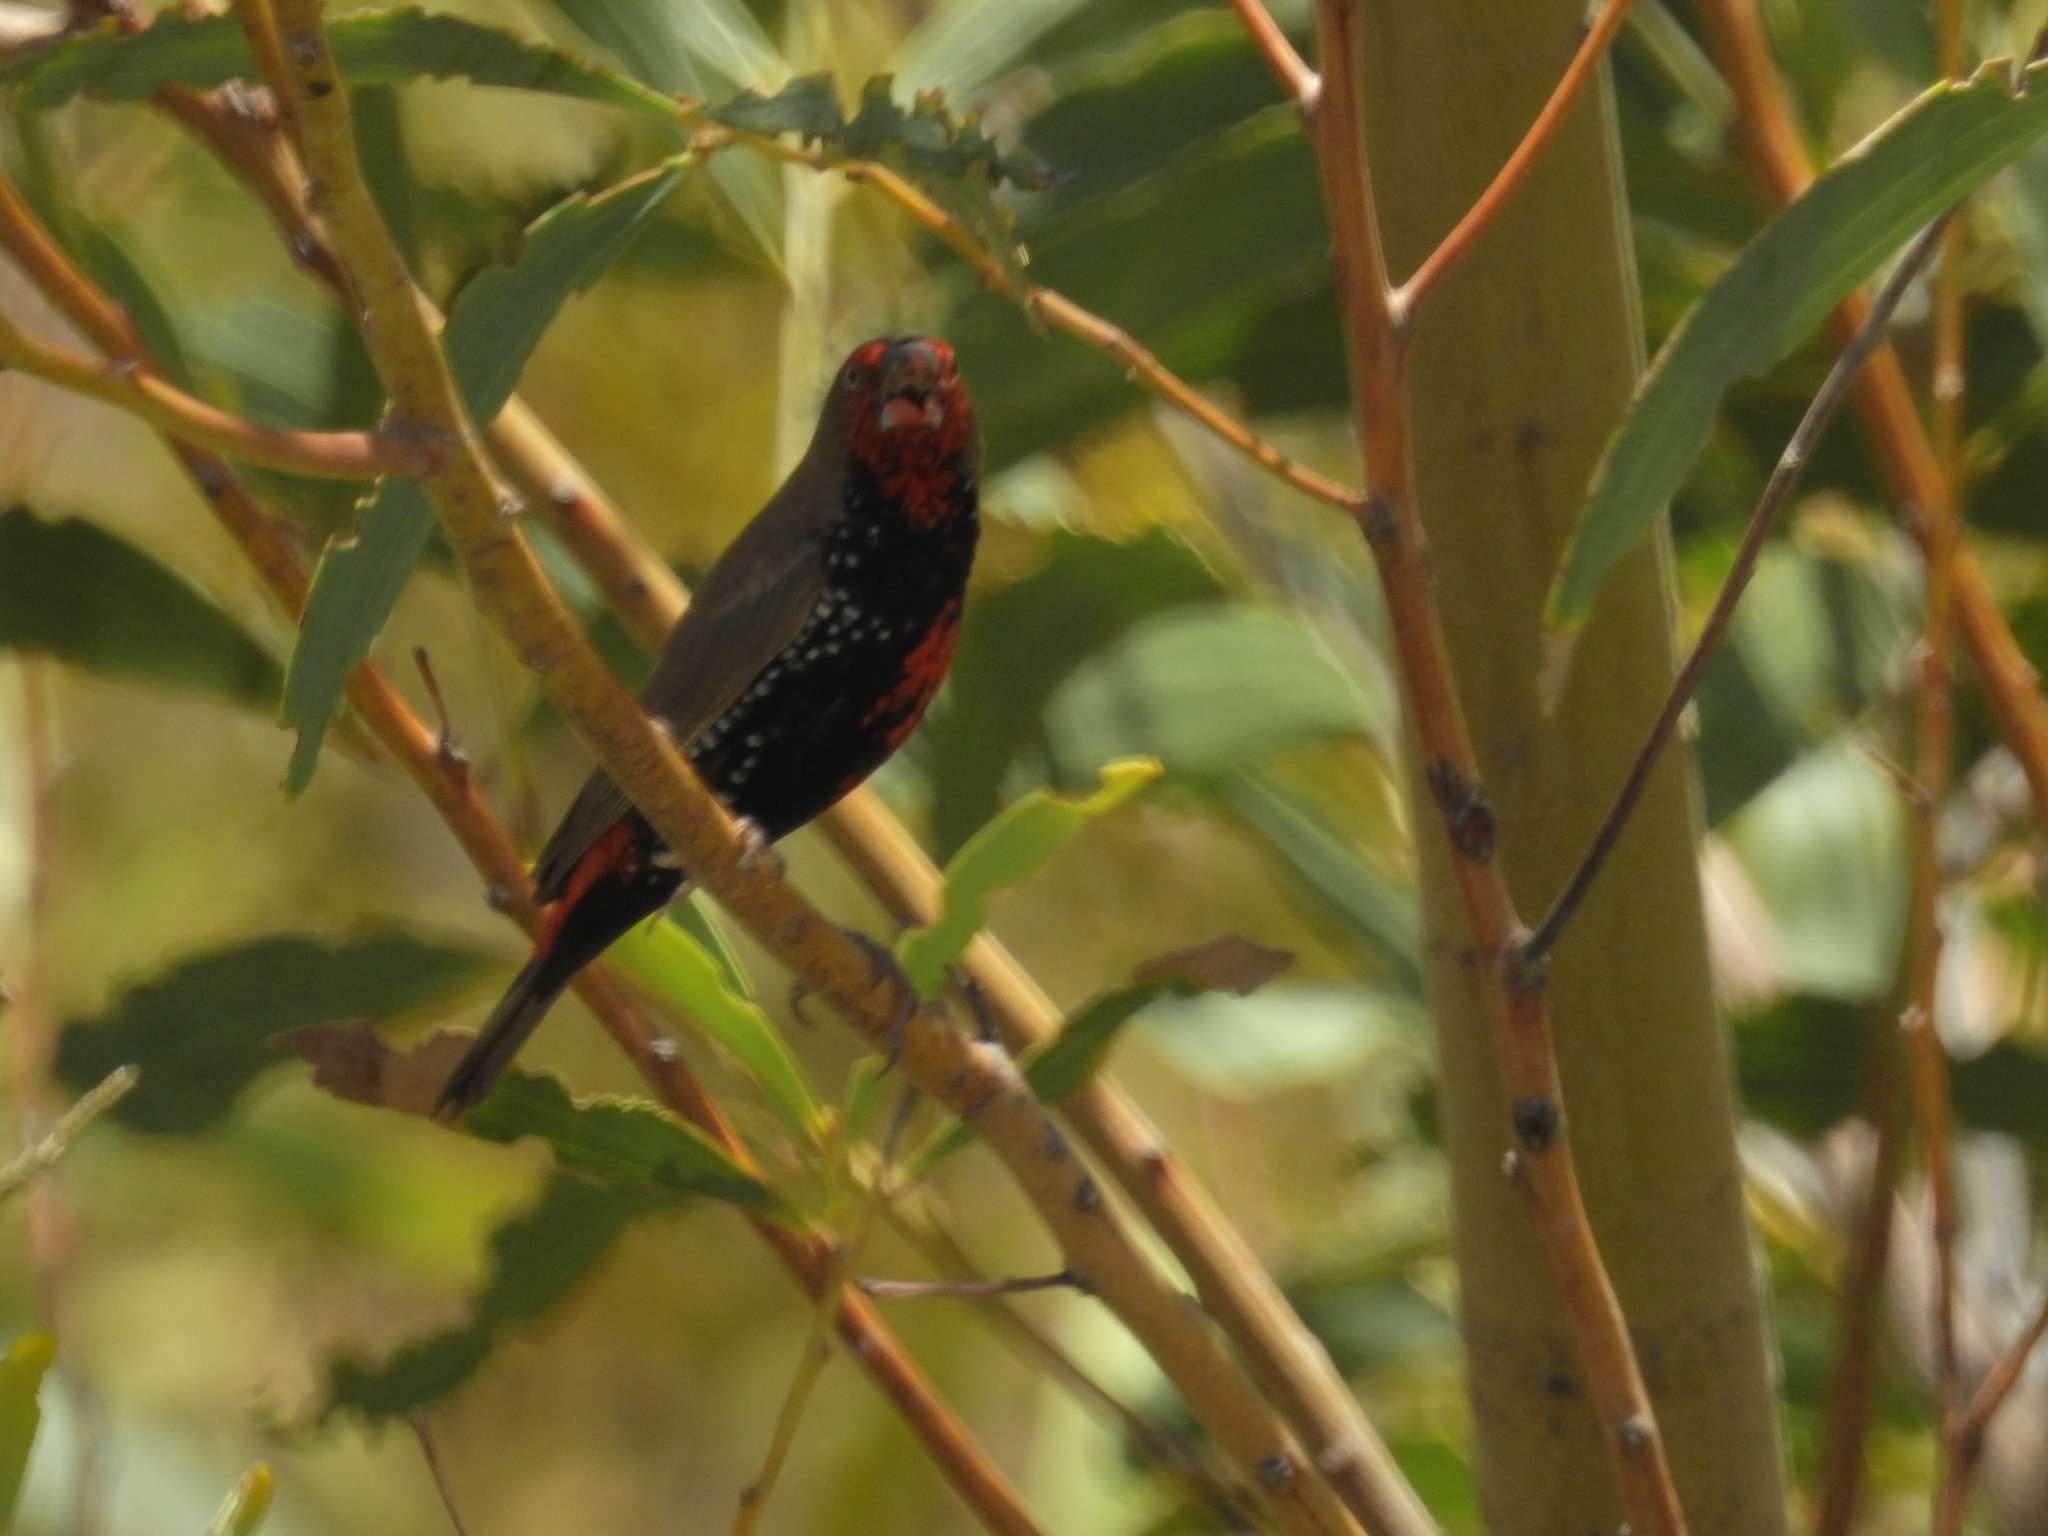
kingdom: Animalia
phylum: Chordata
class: Aves
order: Passeriformes
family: Estrildidae
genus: Emblema
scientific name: Emblema pictum
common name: Painted finch
